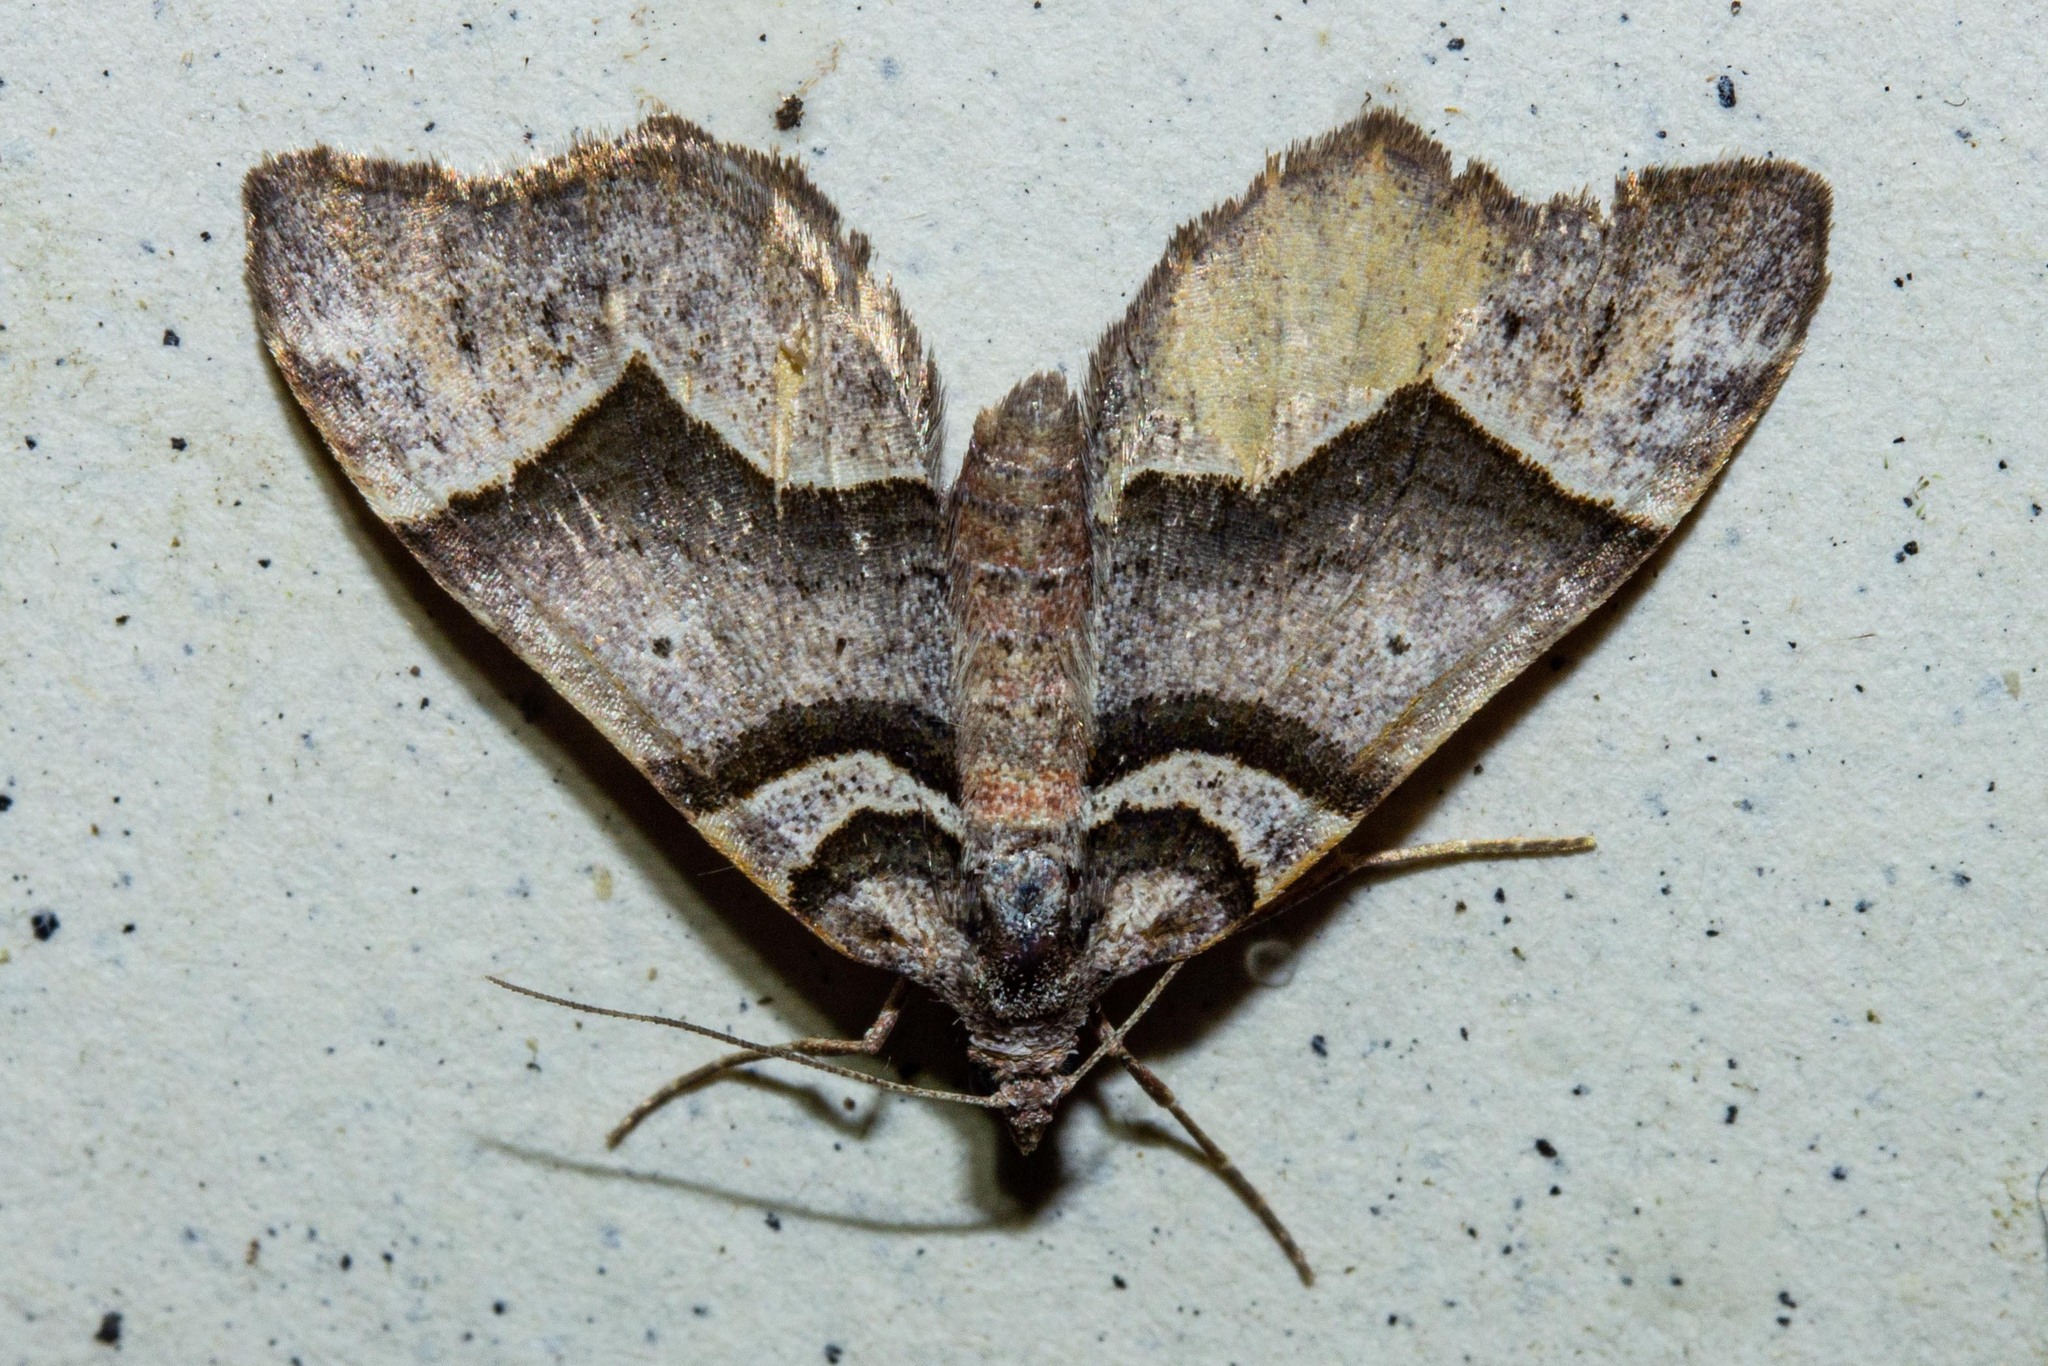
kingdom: Animalia
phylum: Arthropoda
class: Insecta
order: Lepidoptera
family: Geometridae
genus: Helastia
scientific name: Helastia triphragma
